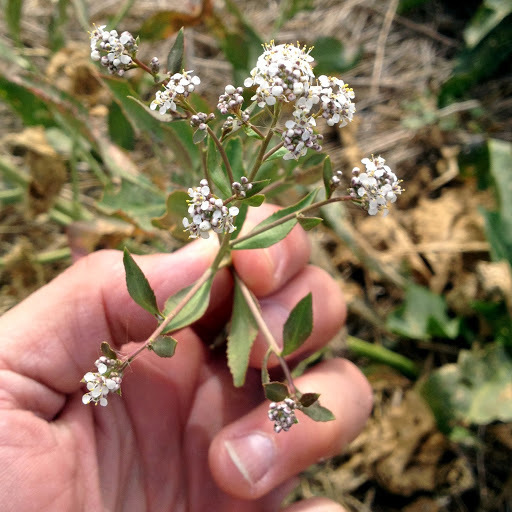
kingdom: Plantae
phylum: Tracheophyta
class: Magnoliopsida
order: Brassicales
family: Brassicaceae
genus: Lepidium
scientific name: Lepidium latifolium
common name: Dittander
